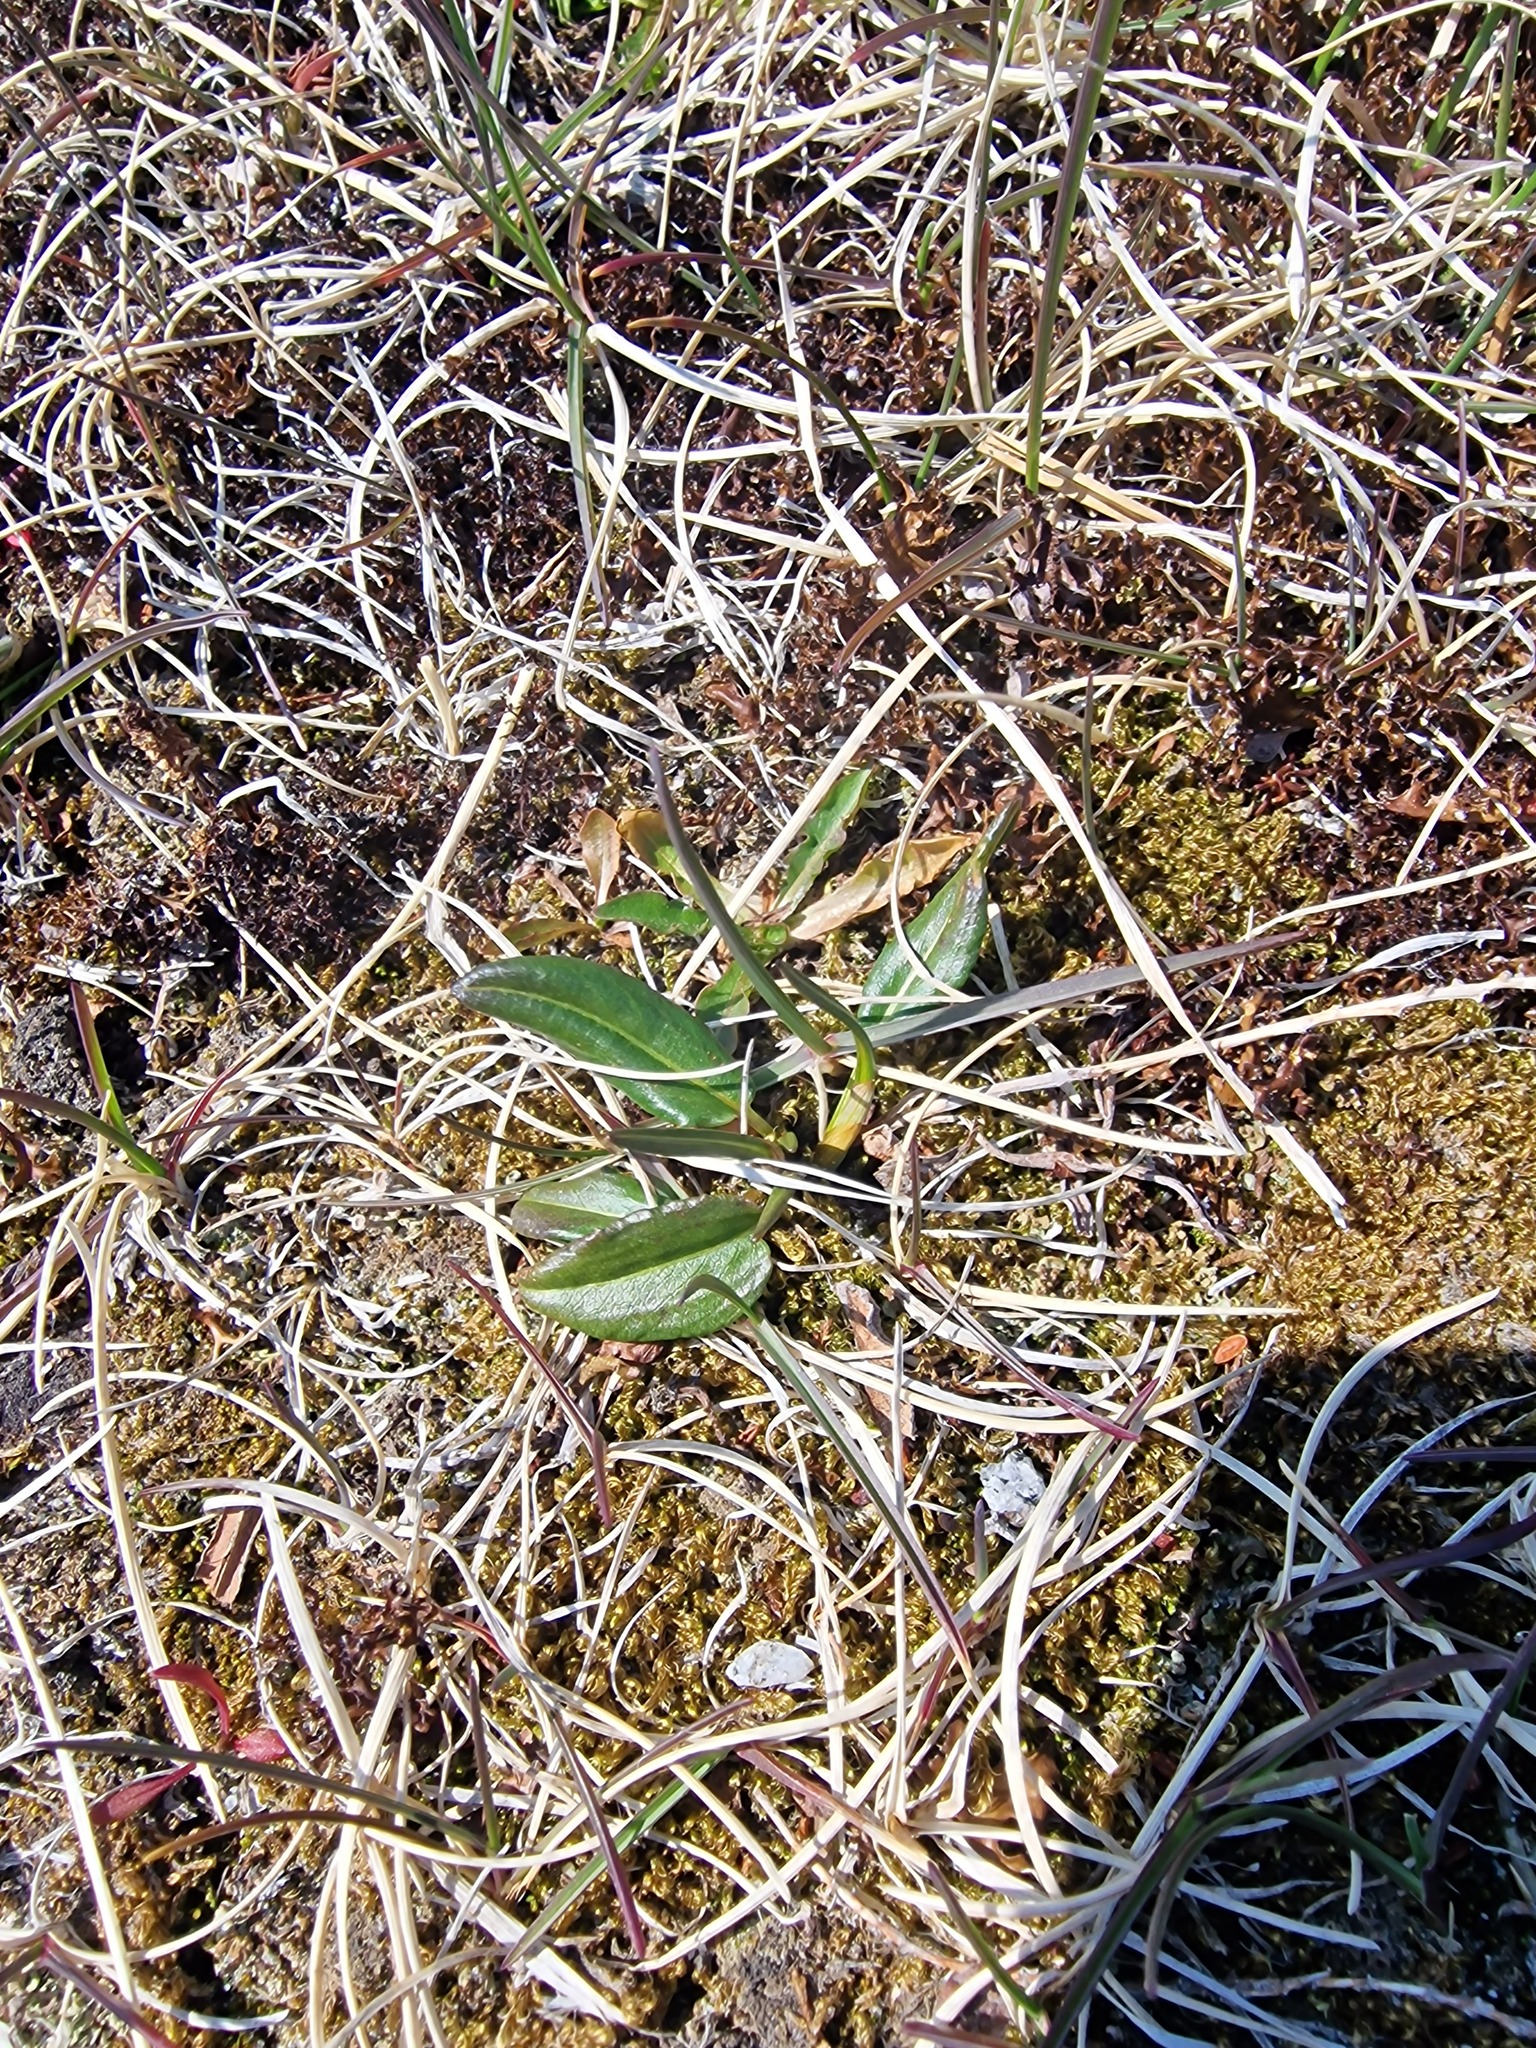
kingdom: Plantae
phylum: Tracheophyta
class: Magnoliopsida
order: Caryophyllales
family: Polygonaceae
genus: Bistorta
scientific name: Bistorta vivipara
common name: Alpine bistort
